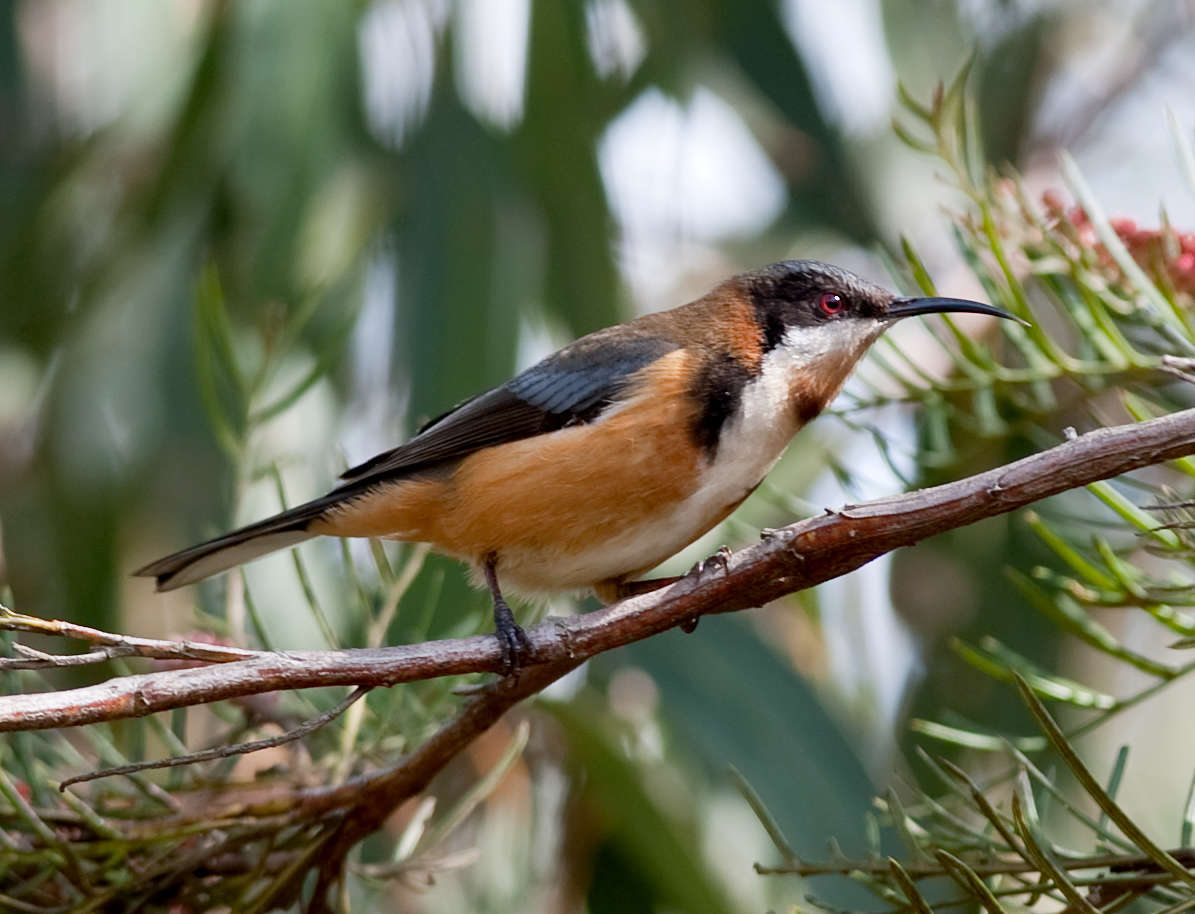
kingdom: Animalia
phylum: Chordata
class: Aves
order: Passeriformes
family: Meliphagidae
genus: Acanthorhynchus
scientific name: Acanthorhynchus tenuirostris
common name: Eastern spinebill
